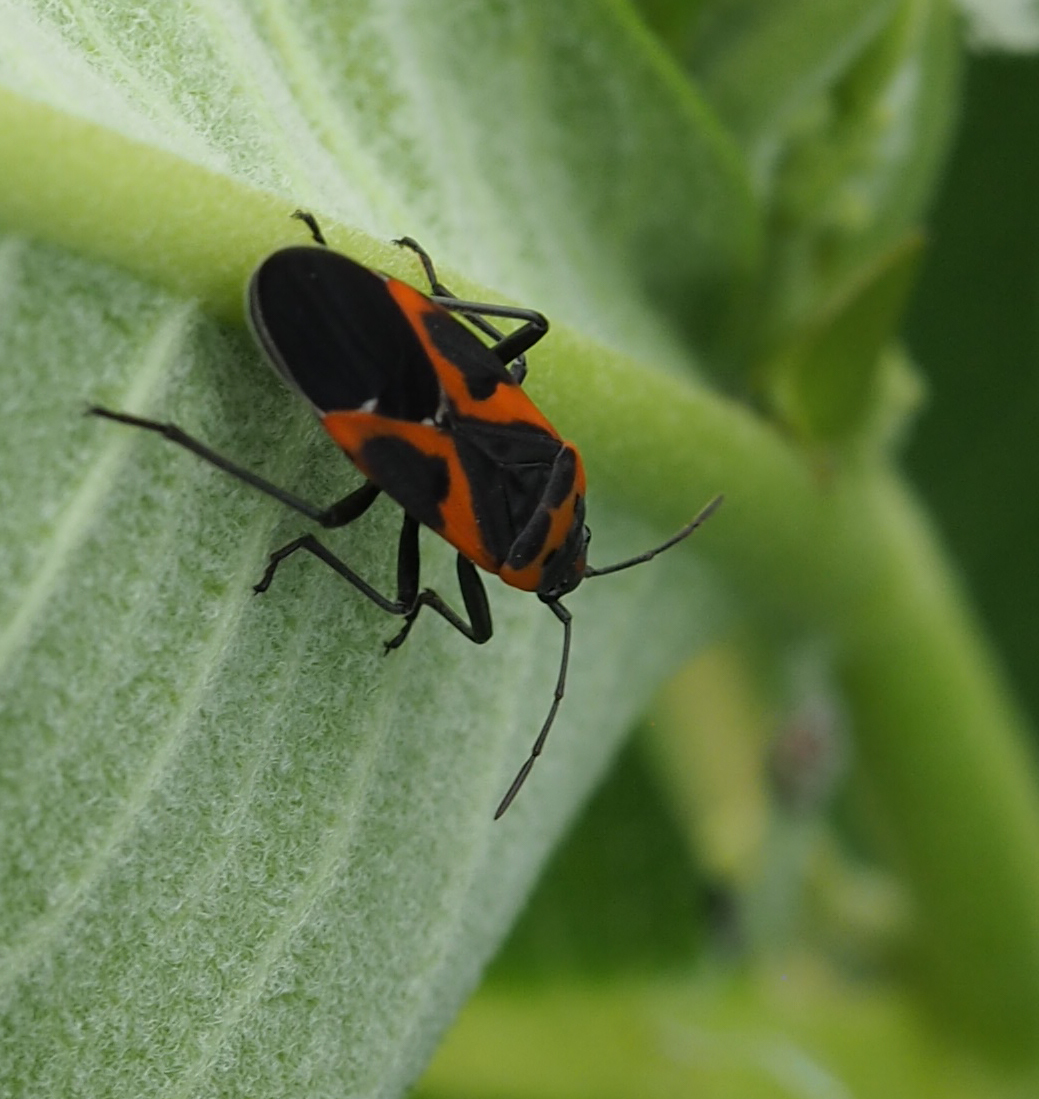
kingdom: Animalia
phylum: Arthropoda
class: Insecta
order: Hemiptera
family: Lygaeidae
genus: Lygaeus
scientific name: Lygaeus kalmii
